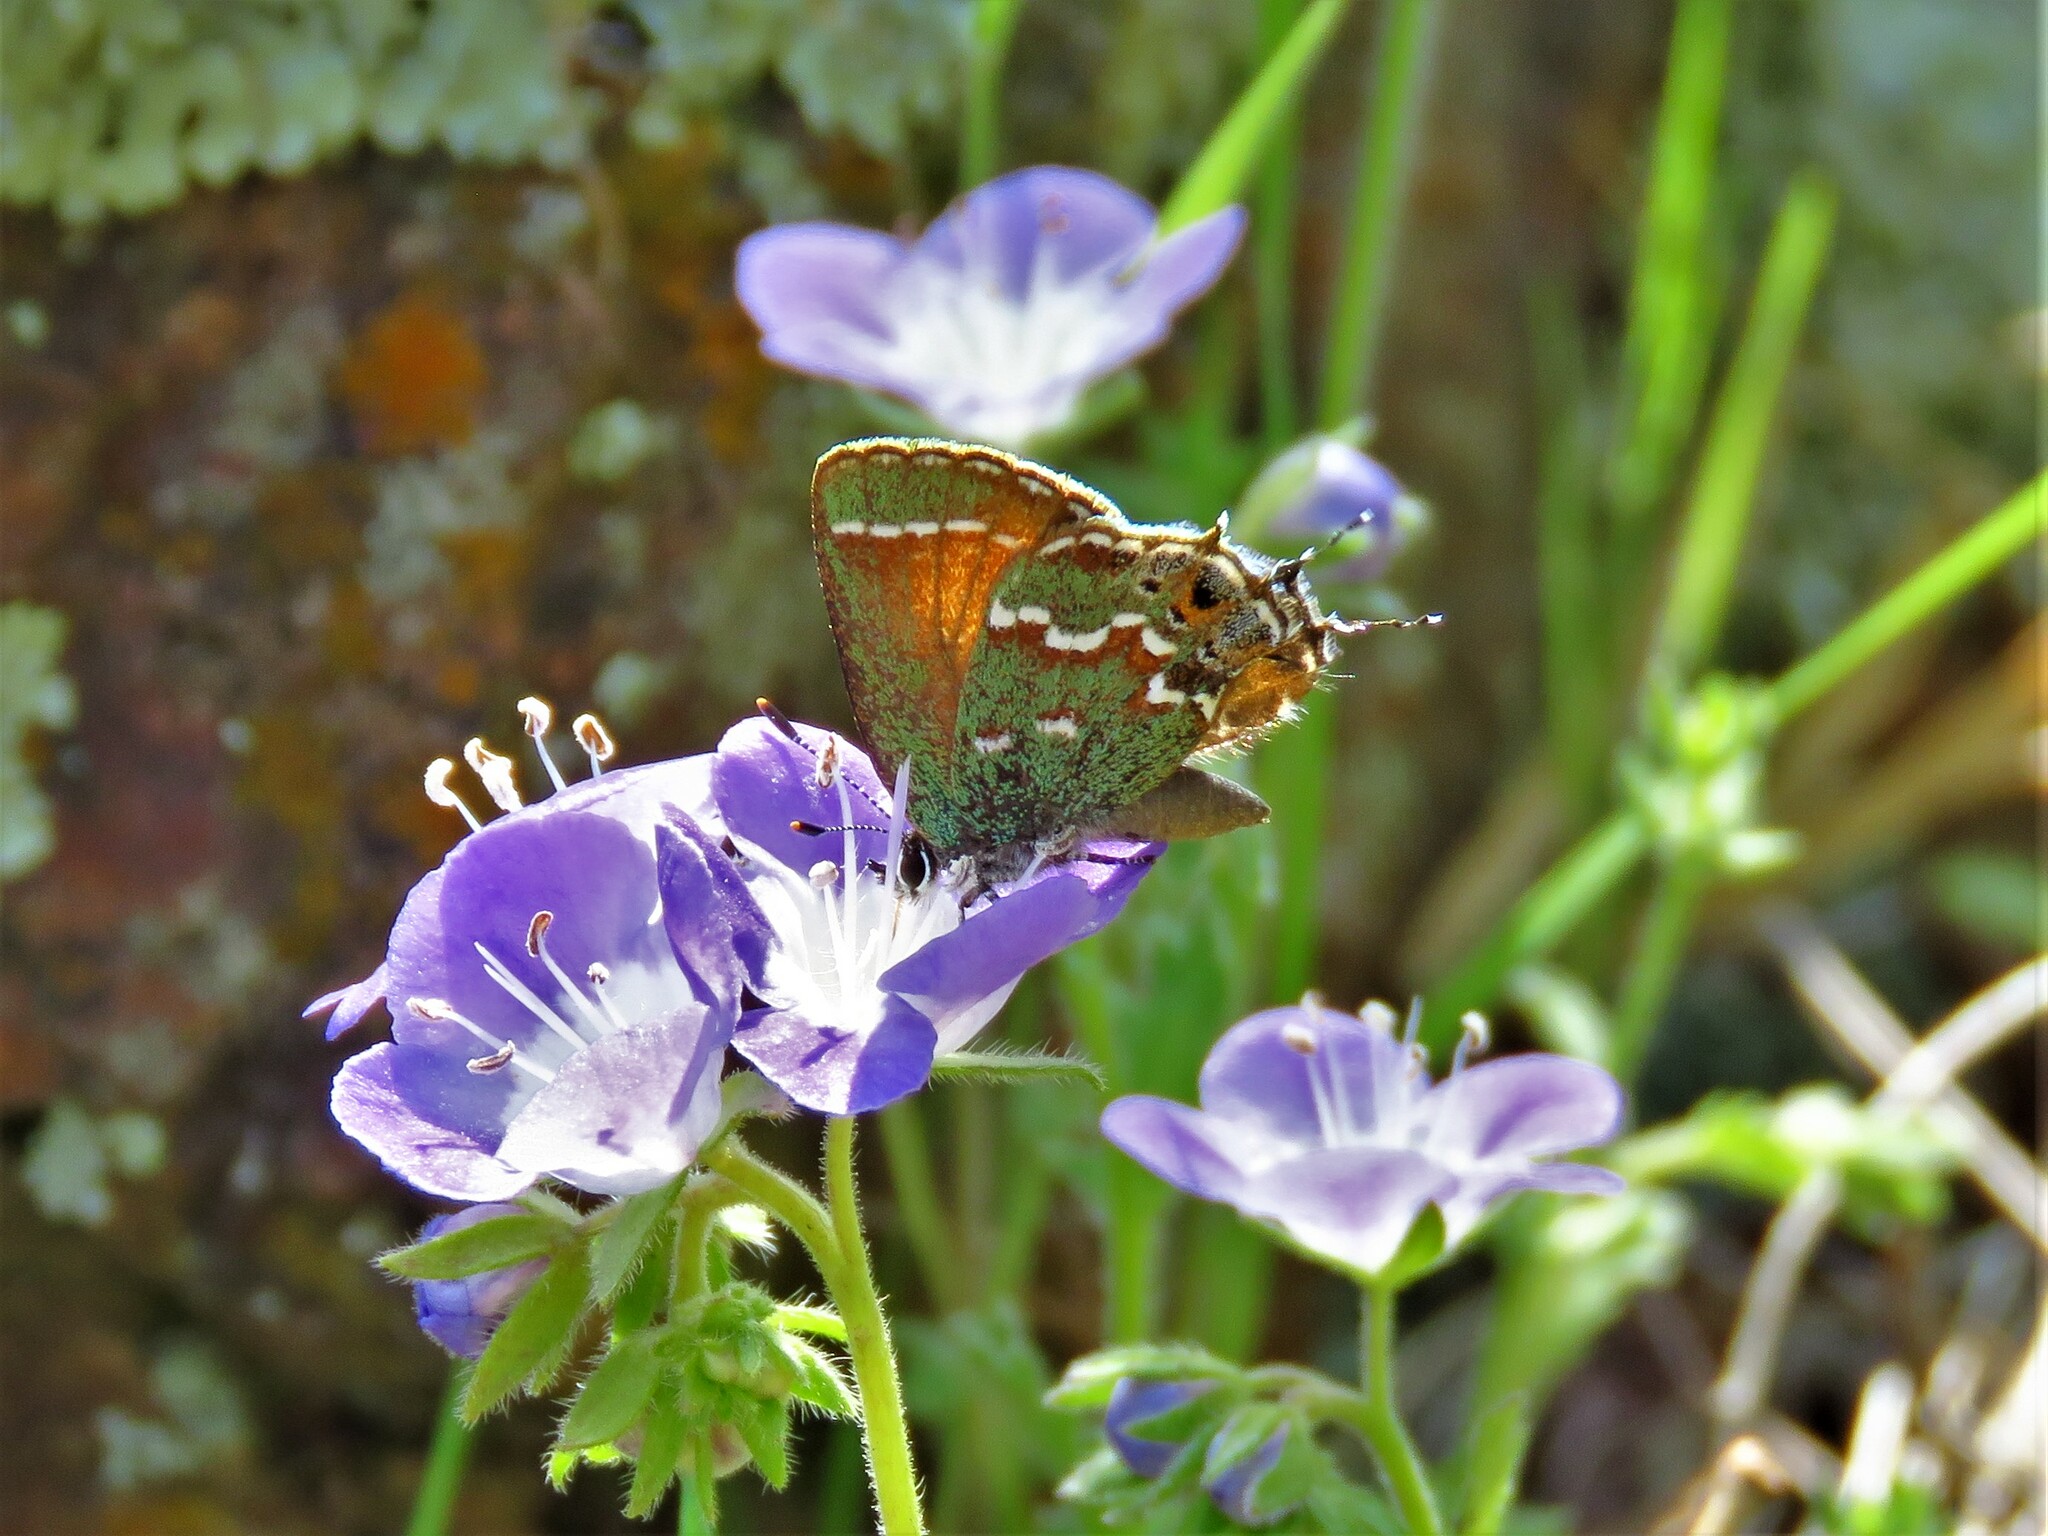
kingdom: Animalia
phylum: Arthropoda
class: Insecta
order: Lepidoptera
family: Lycaenidae
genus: Mitoura
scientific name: Mitoura gryneus
